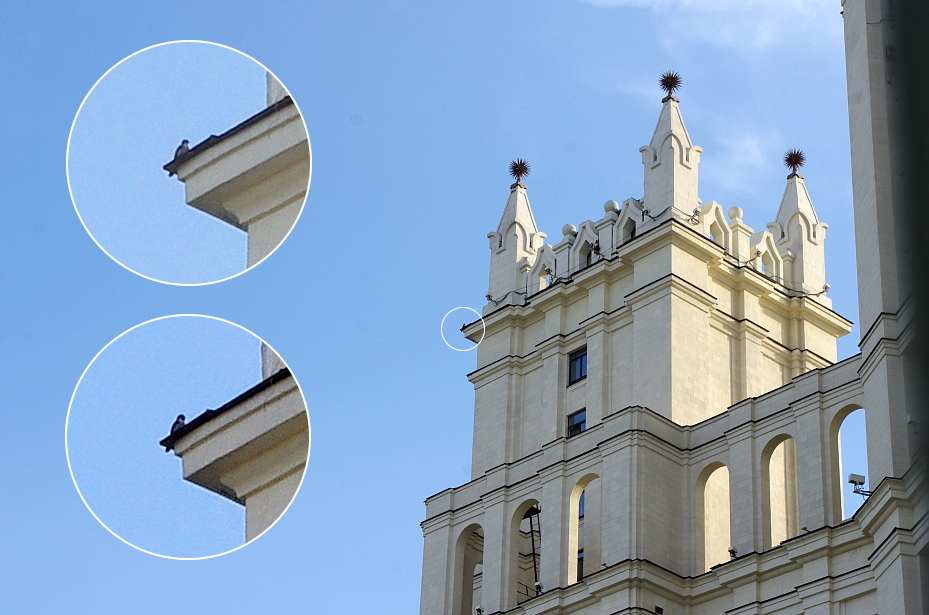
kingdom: Animalia
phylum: Chordata
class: Aves
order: Falconiformes
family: Falconidae
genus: Falco
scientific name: Falco peregrinus
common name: Peregrine falcon
